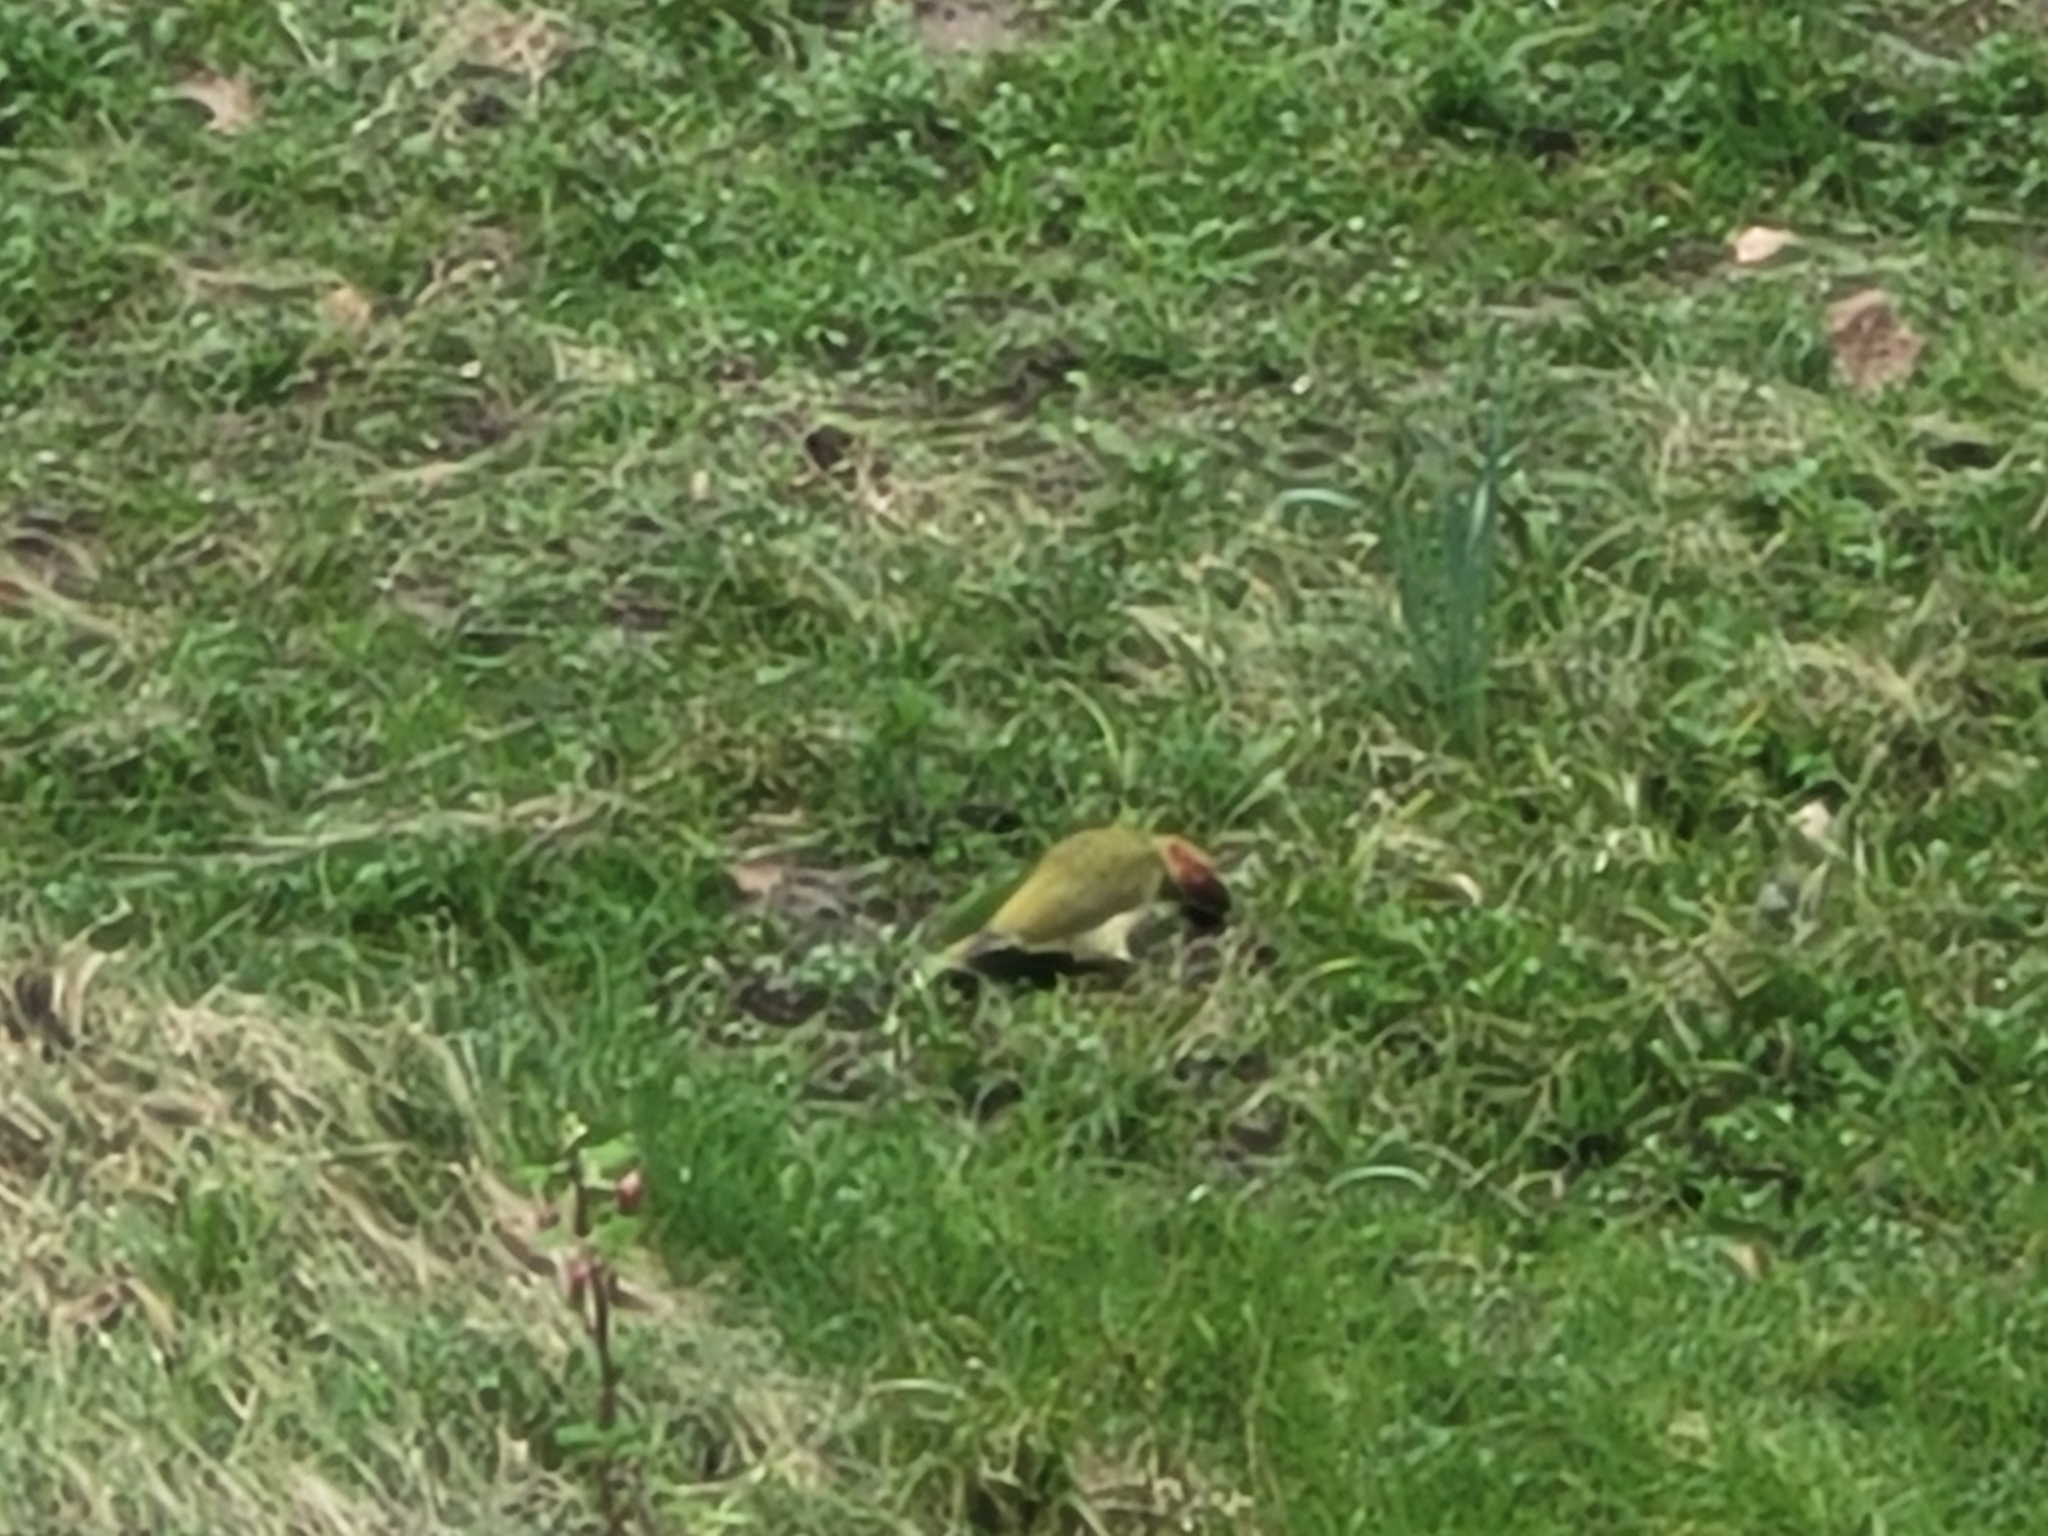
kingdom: Animalia
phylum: Chordata
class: Aves
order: Piciformes
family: Picidae
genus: Picus
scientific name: Picus viridis
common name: European green woodpecker
